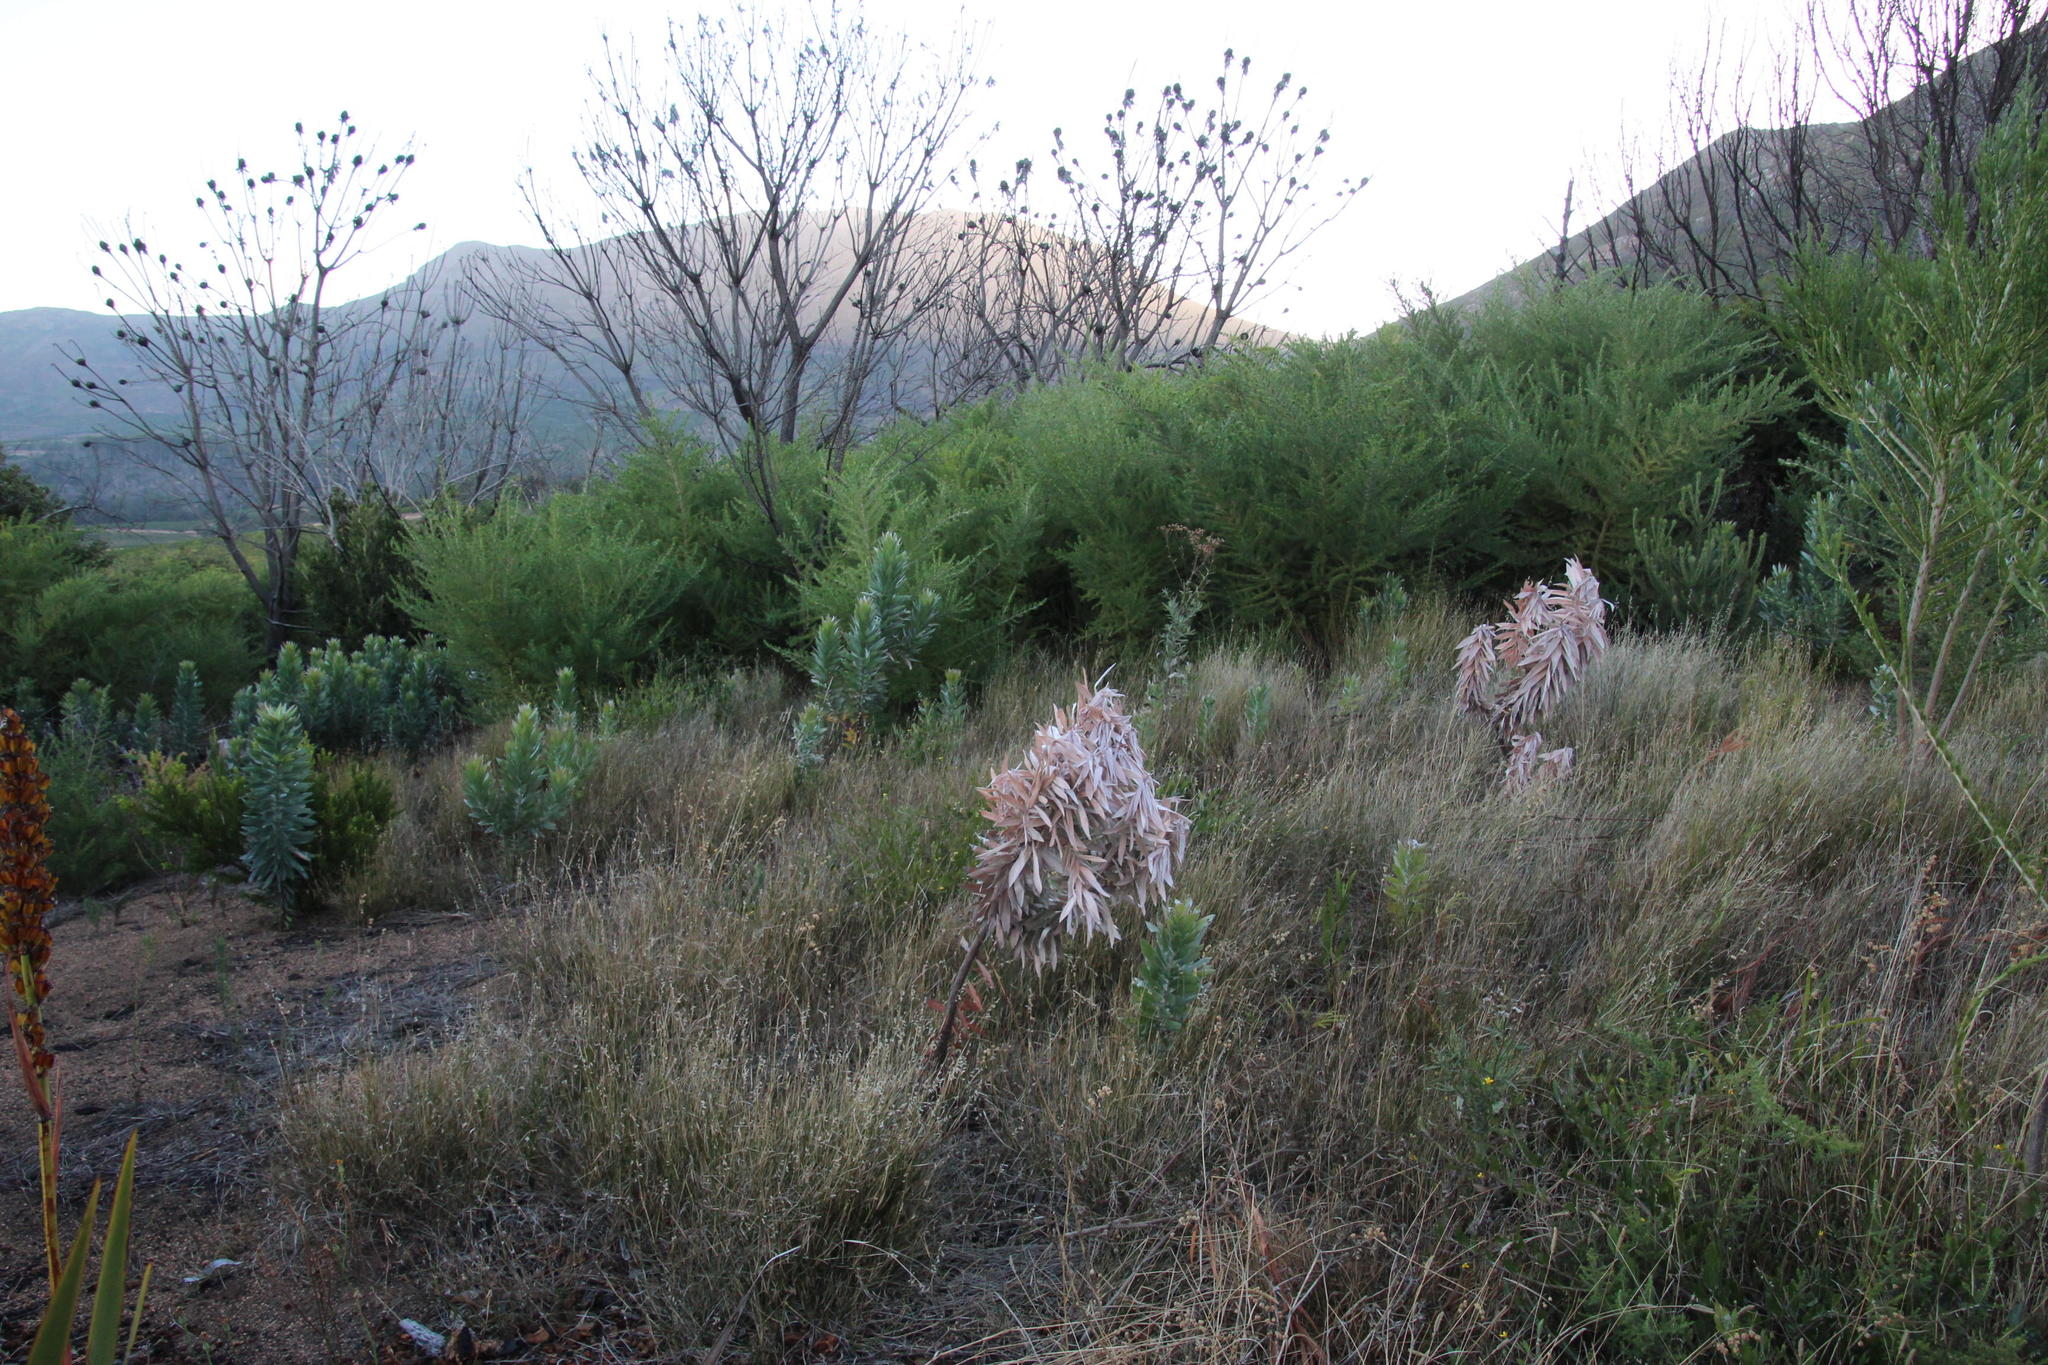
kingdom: Plantae
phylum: Tracheophyta
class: Magnoliopsida
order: Proteales
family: Proteaceae
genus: Leucadendron
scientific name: Leucadendron argenteum
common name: Cape silver tree
